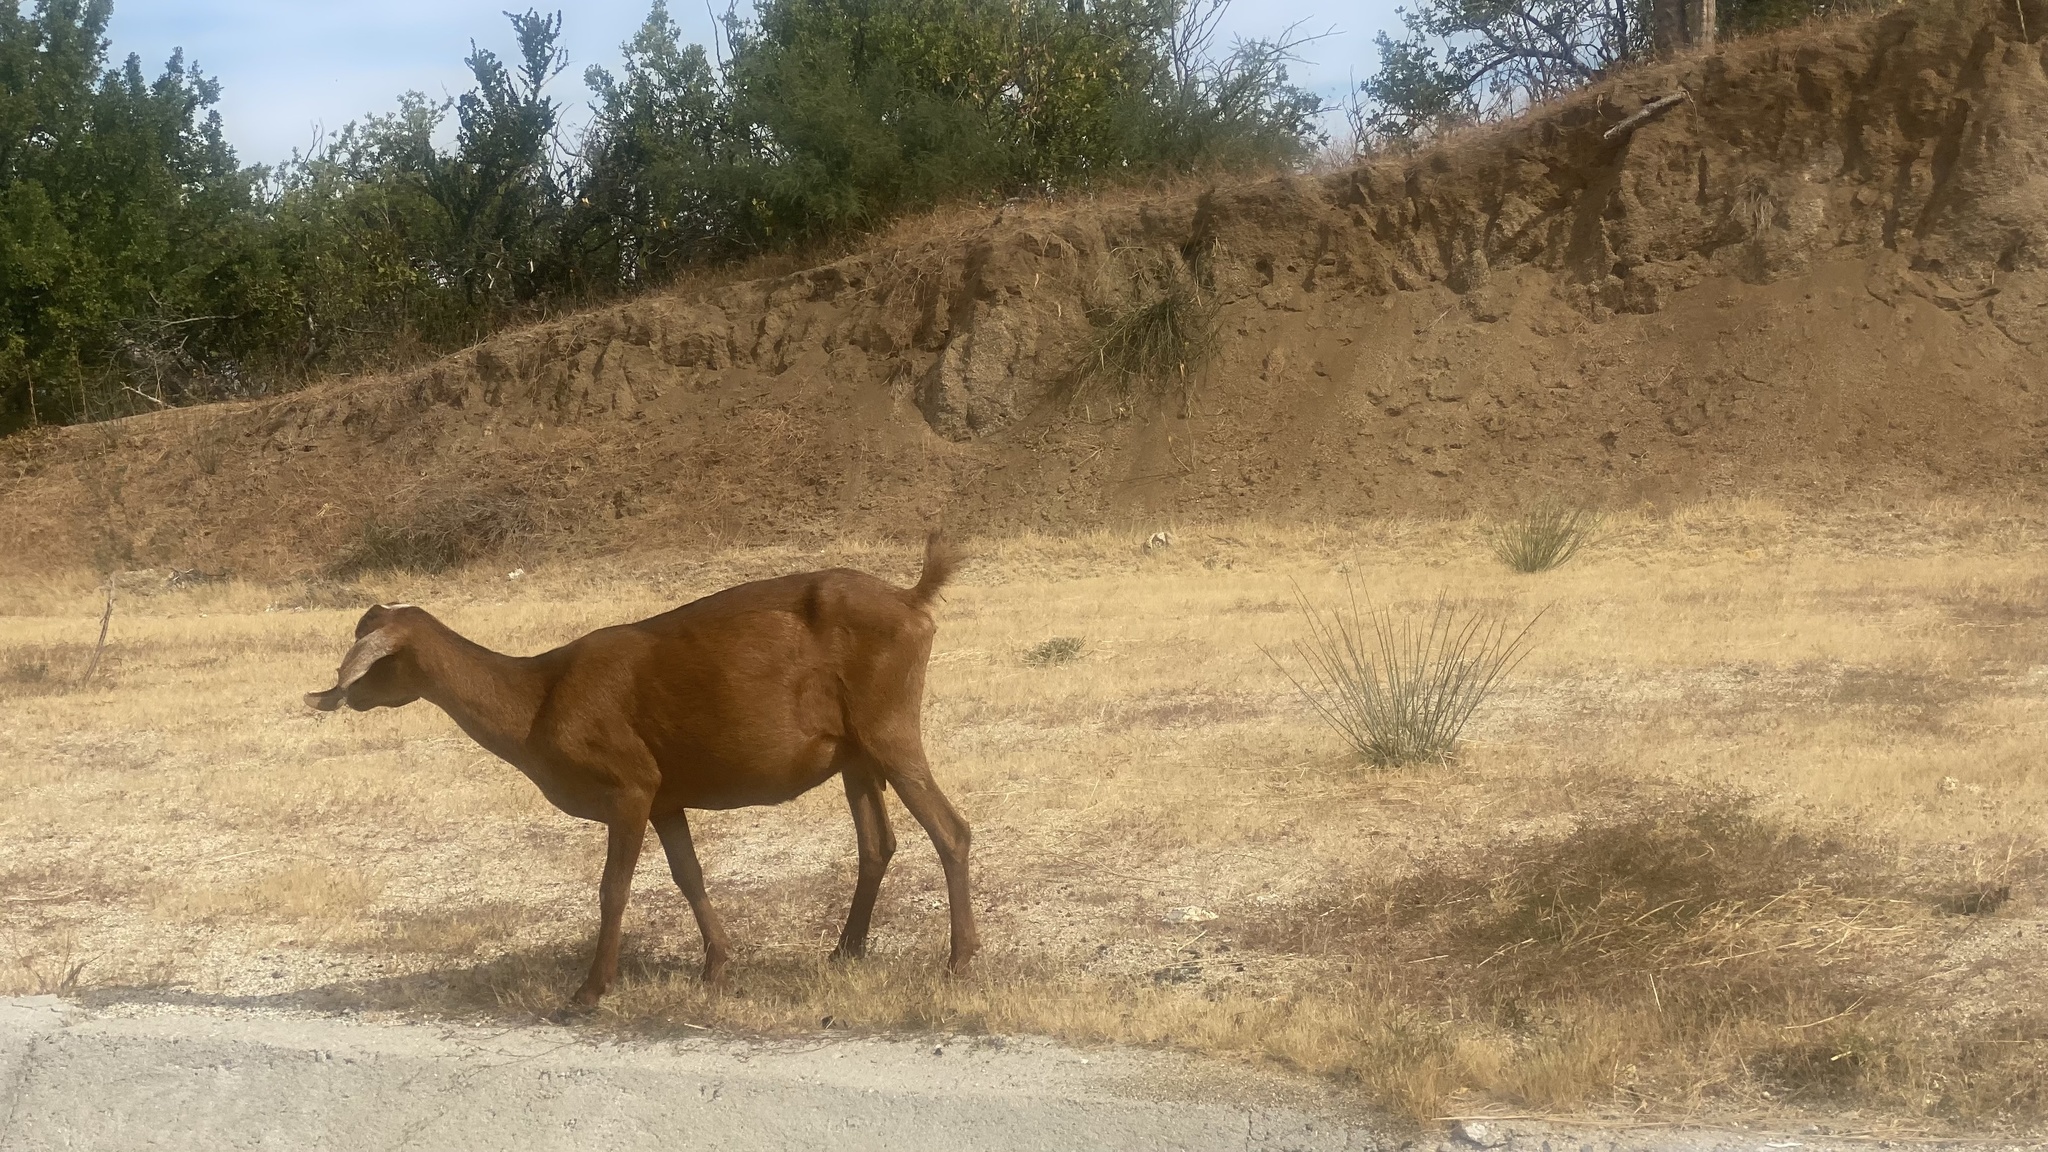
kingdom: Animalia
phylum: Chordata
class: Mammalia
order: Artiodactyla
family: Bovidae
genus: Capra
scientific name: Capra hircus
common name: Domestic goat
